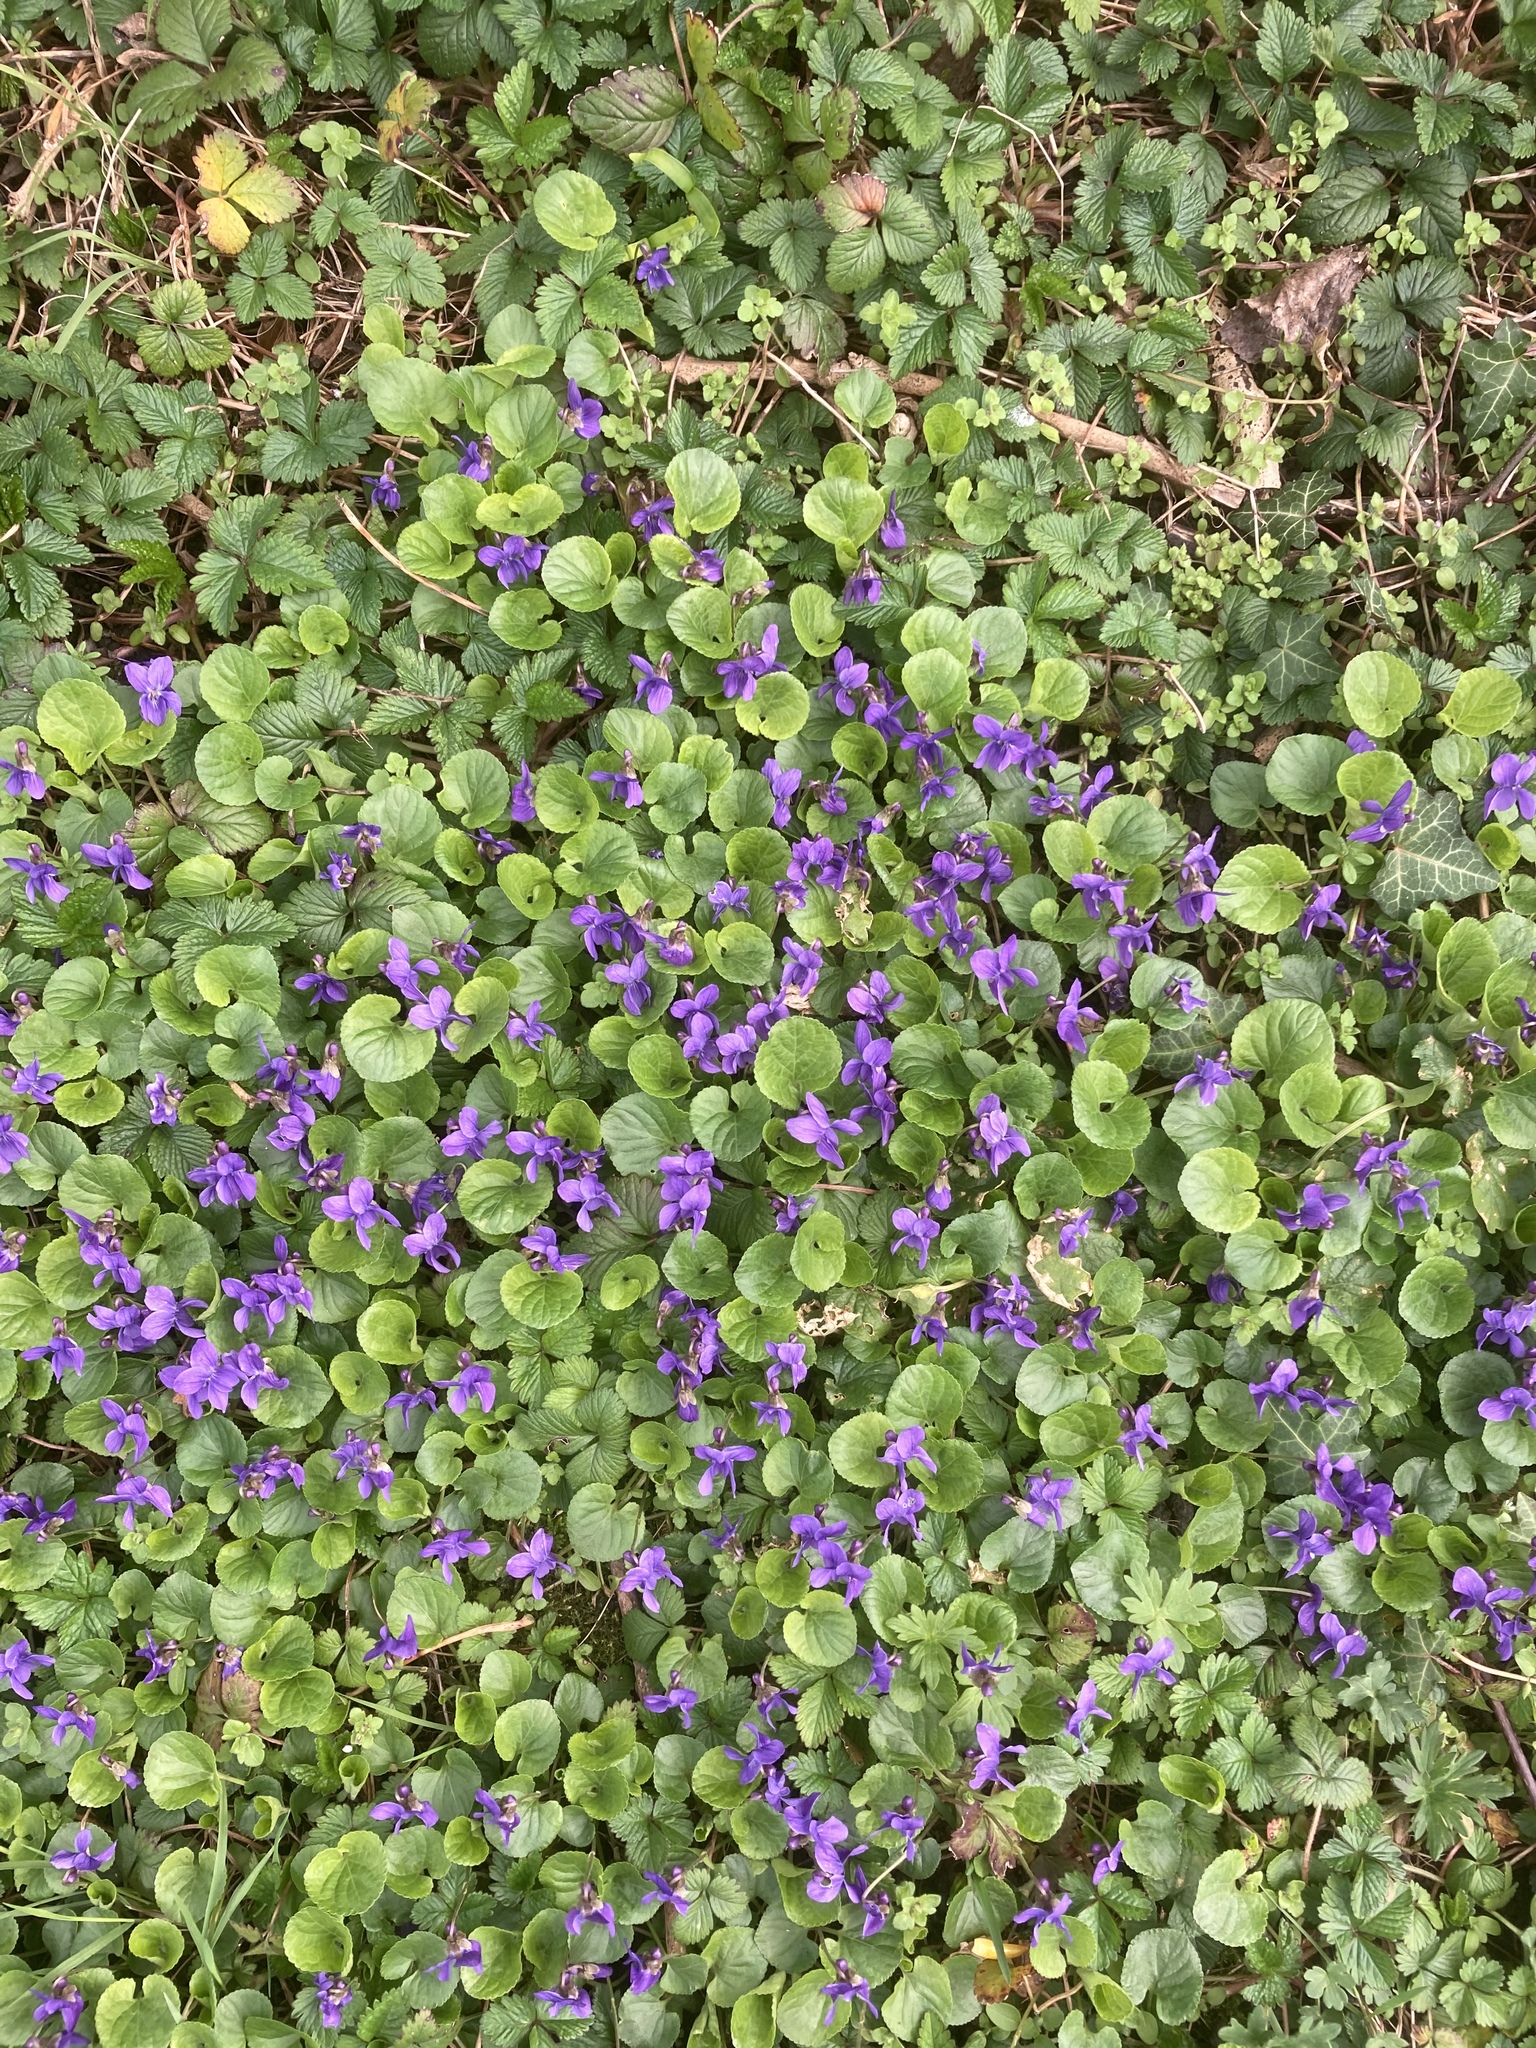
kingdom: Plantae
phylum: Tracheophyta
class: Magnoliopsida
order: Malpighiales
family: Violaceae
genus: Viola
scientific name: Viola odorata
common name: Sweet violet
